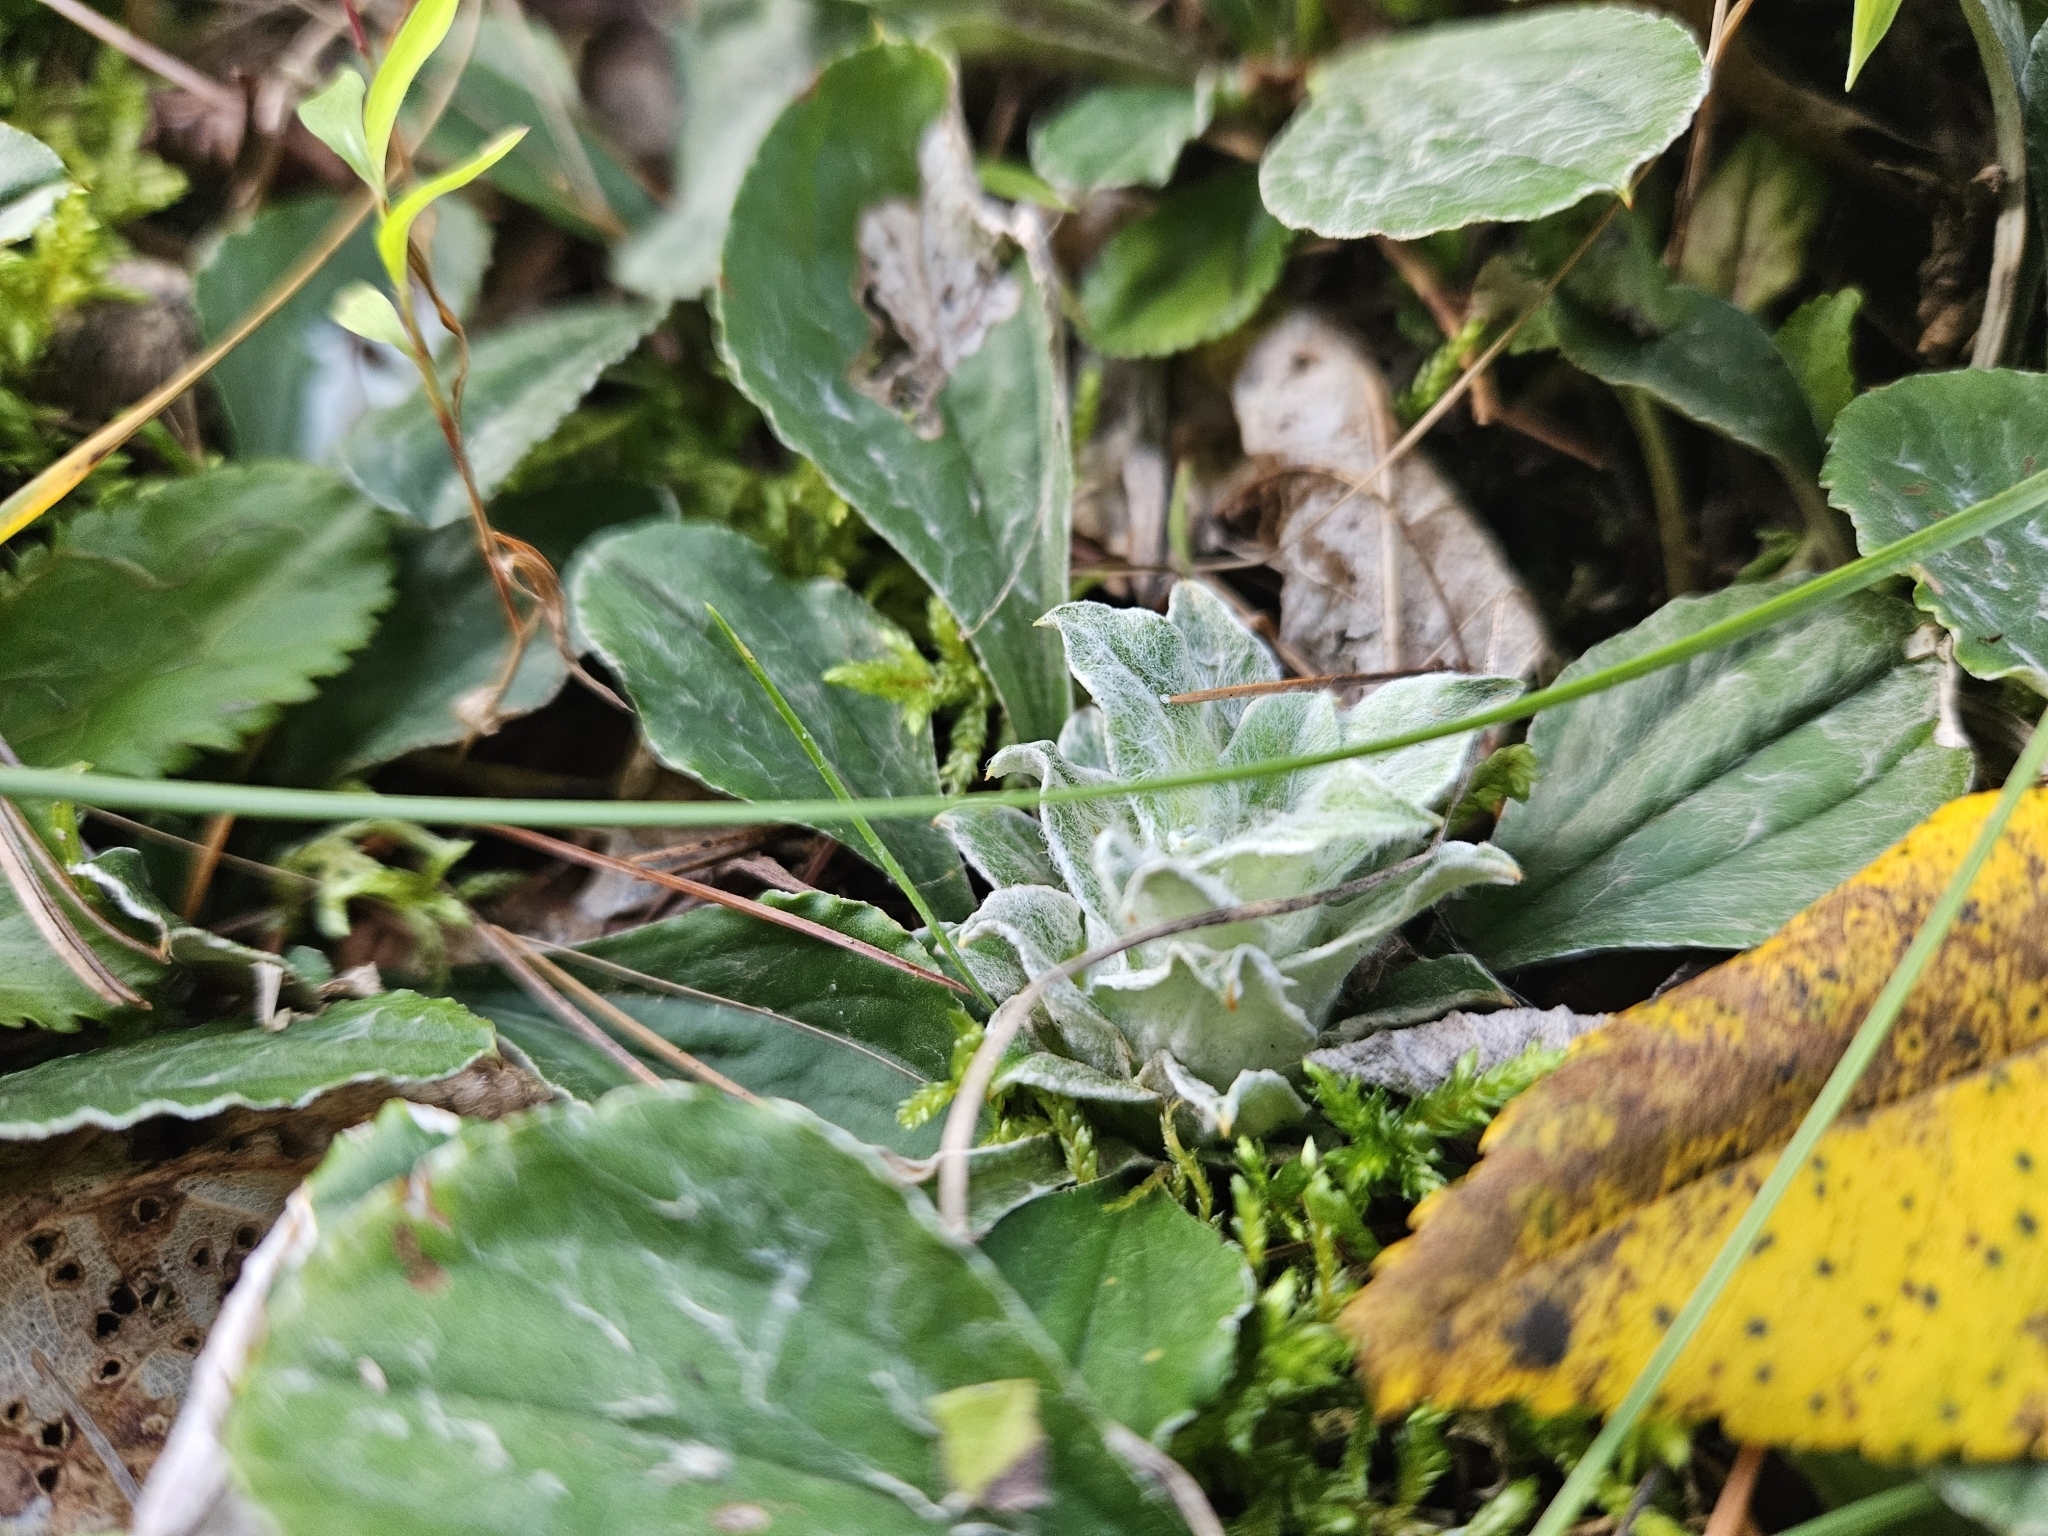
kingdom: Animalia
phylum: Arthropoda
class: Insecta
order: Diptera
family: Cecidomyiidae
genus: Asphondylia
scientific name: Asphondylia antennariae
